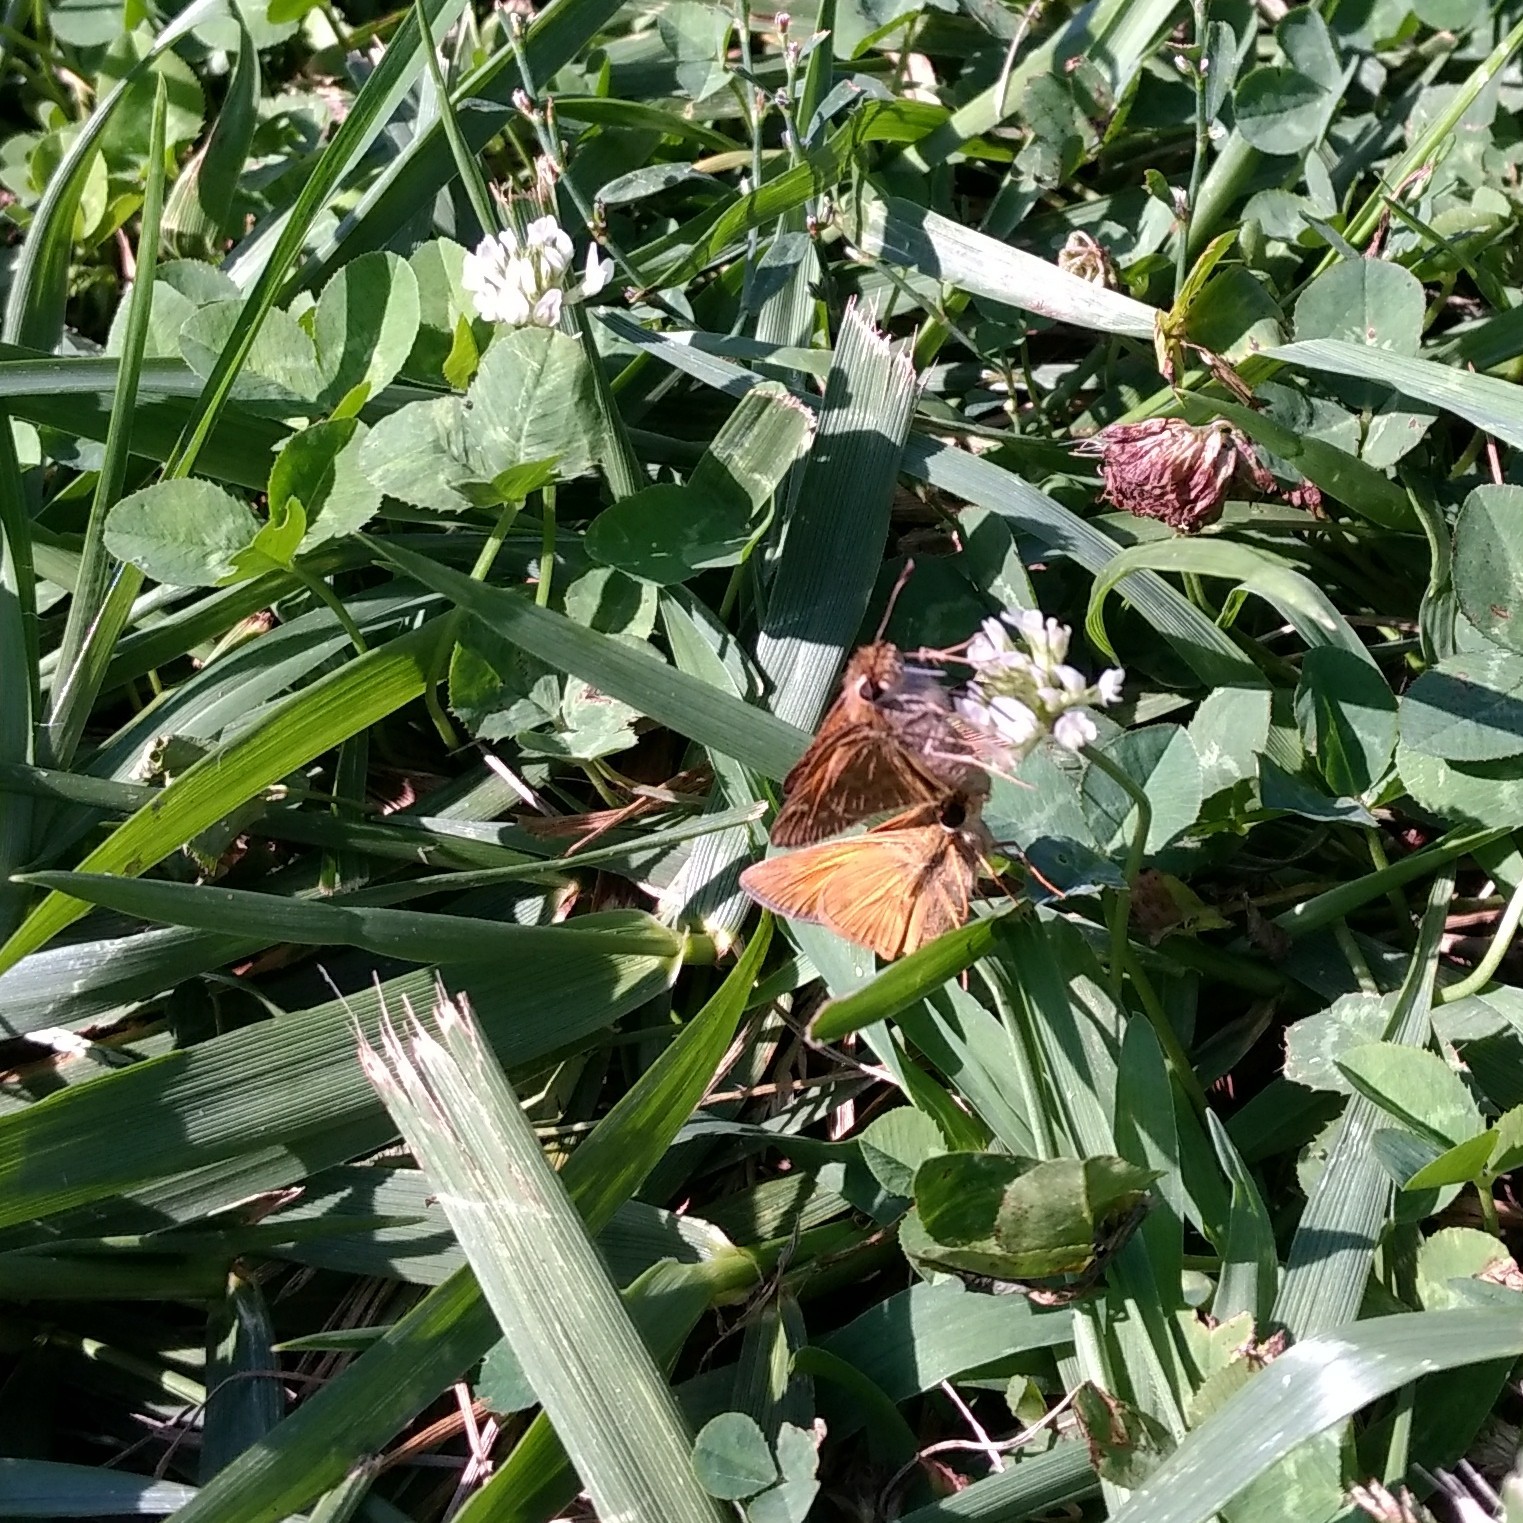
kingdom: Animalia
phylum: Arthropoda
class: Insecta
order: Lepidoptera
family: Hesperiidae
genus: Atalopedes
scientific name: Atalopedes
